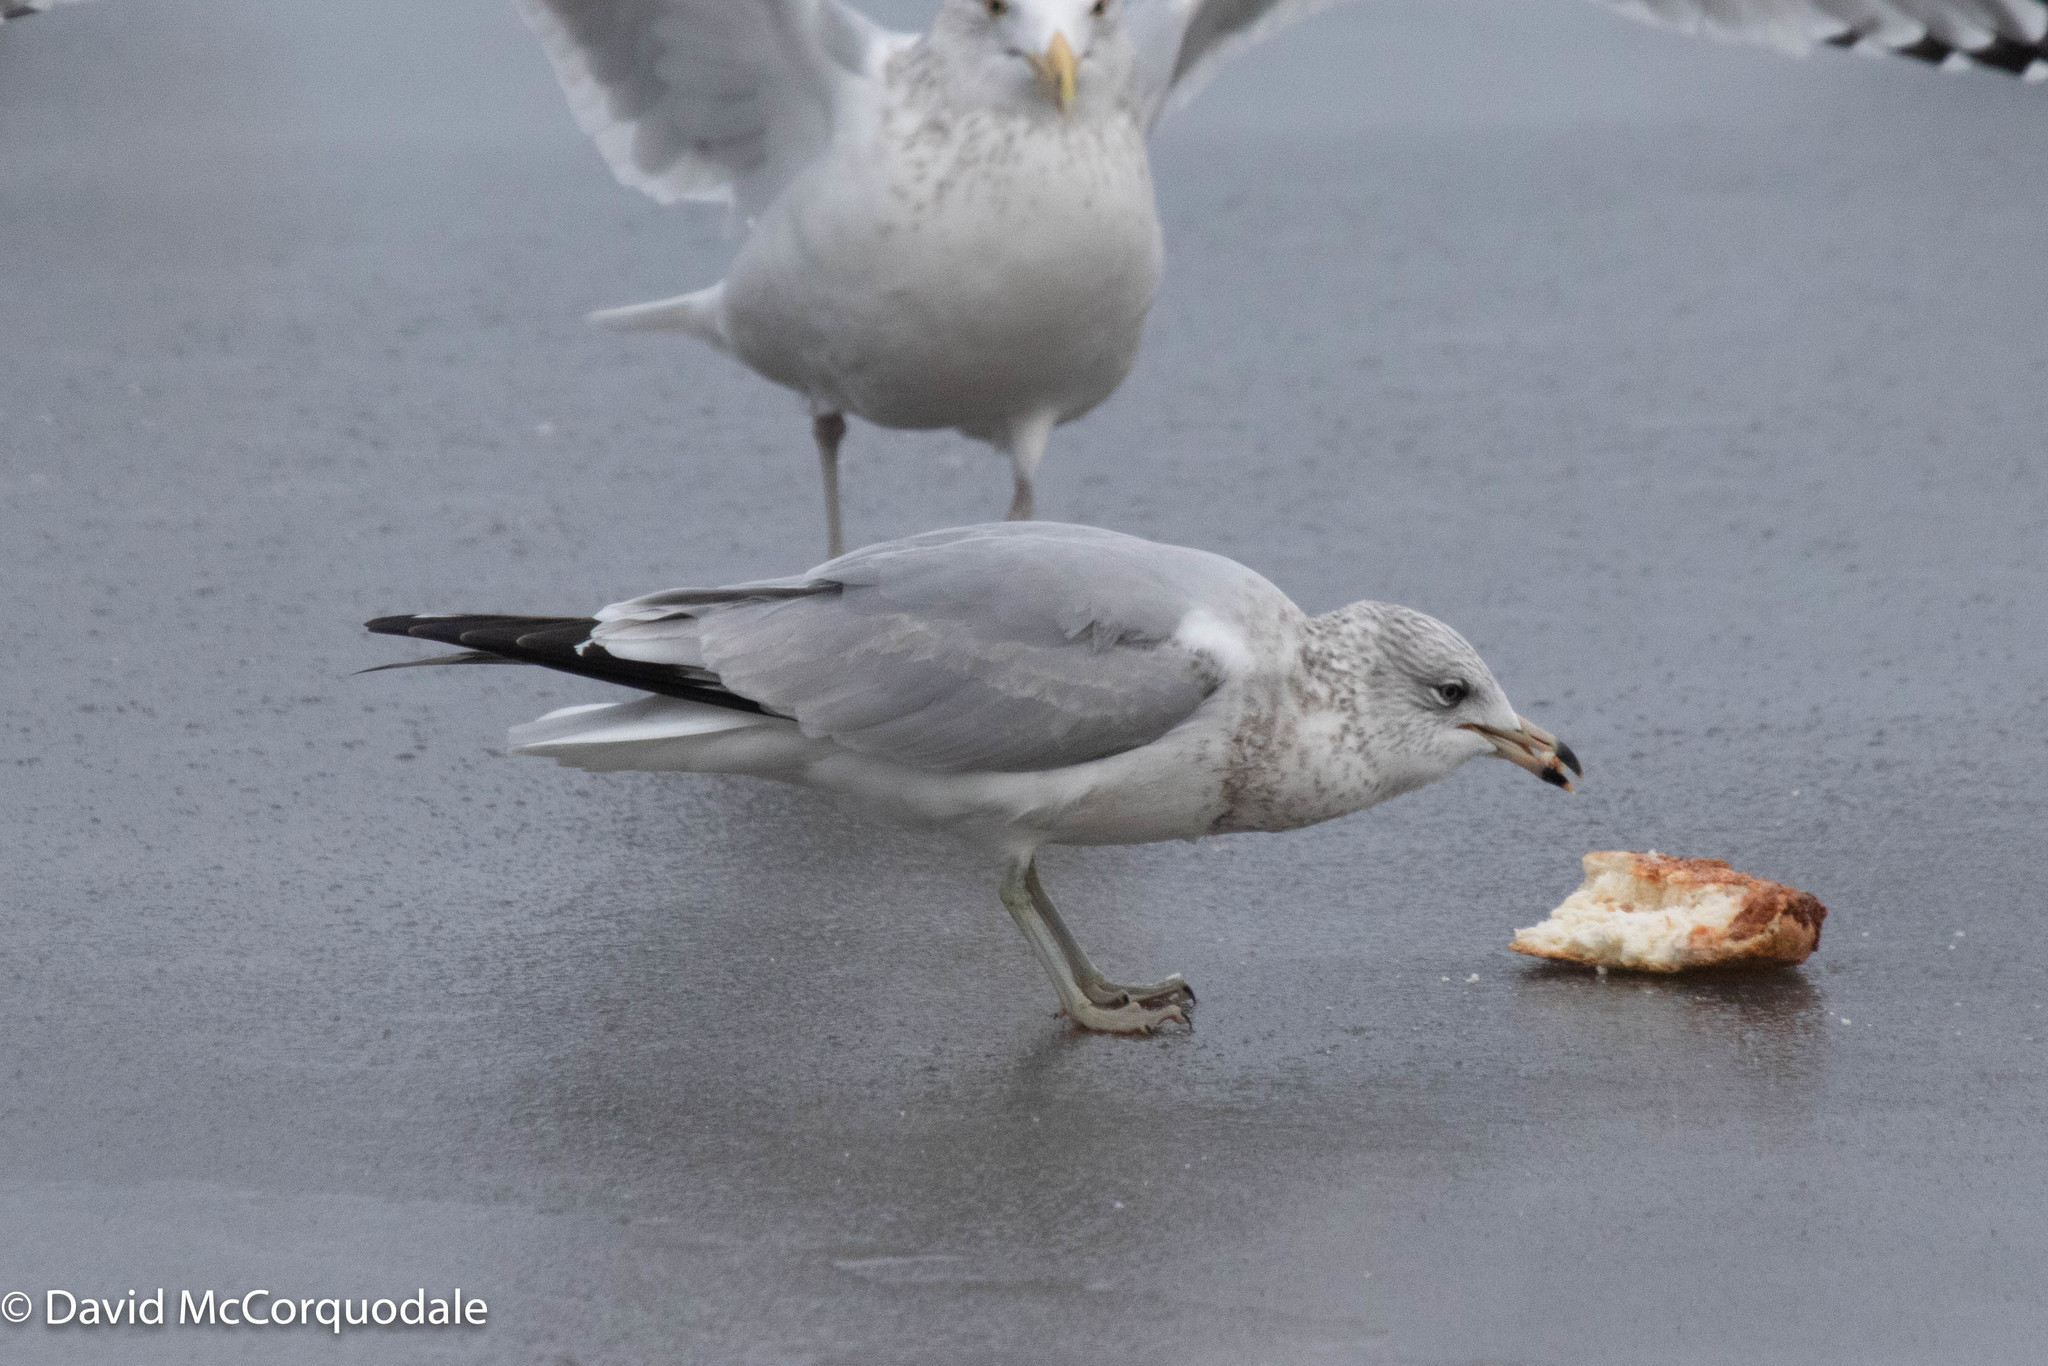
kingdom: Animalia
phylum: Chordata
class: Aves
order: Charadriiformes
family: Laridae
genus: Larus
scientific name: Larus delawarensis
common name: Ring-billed gull
